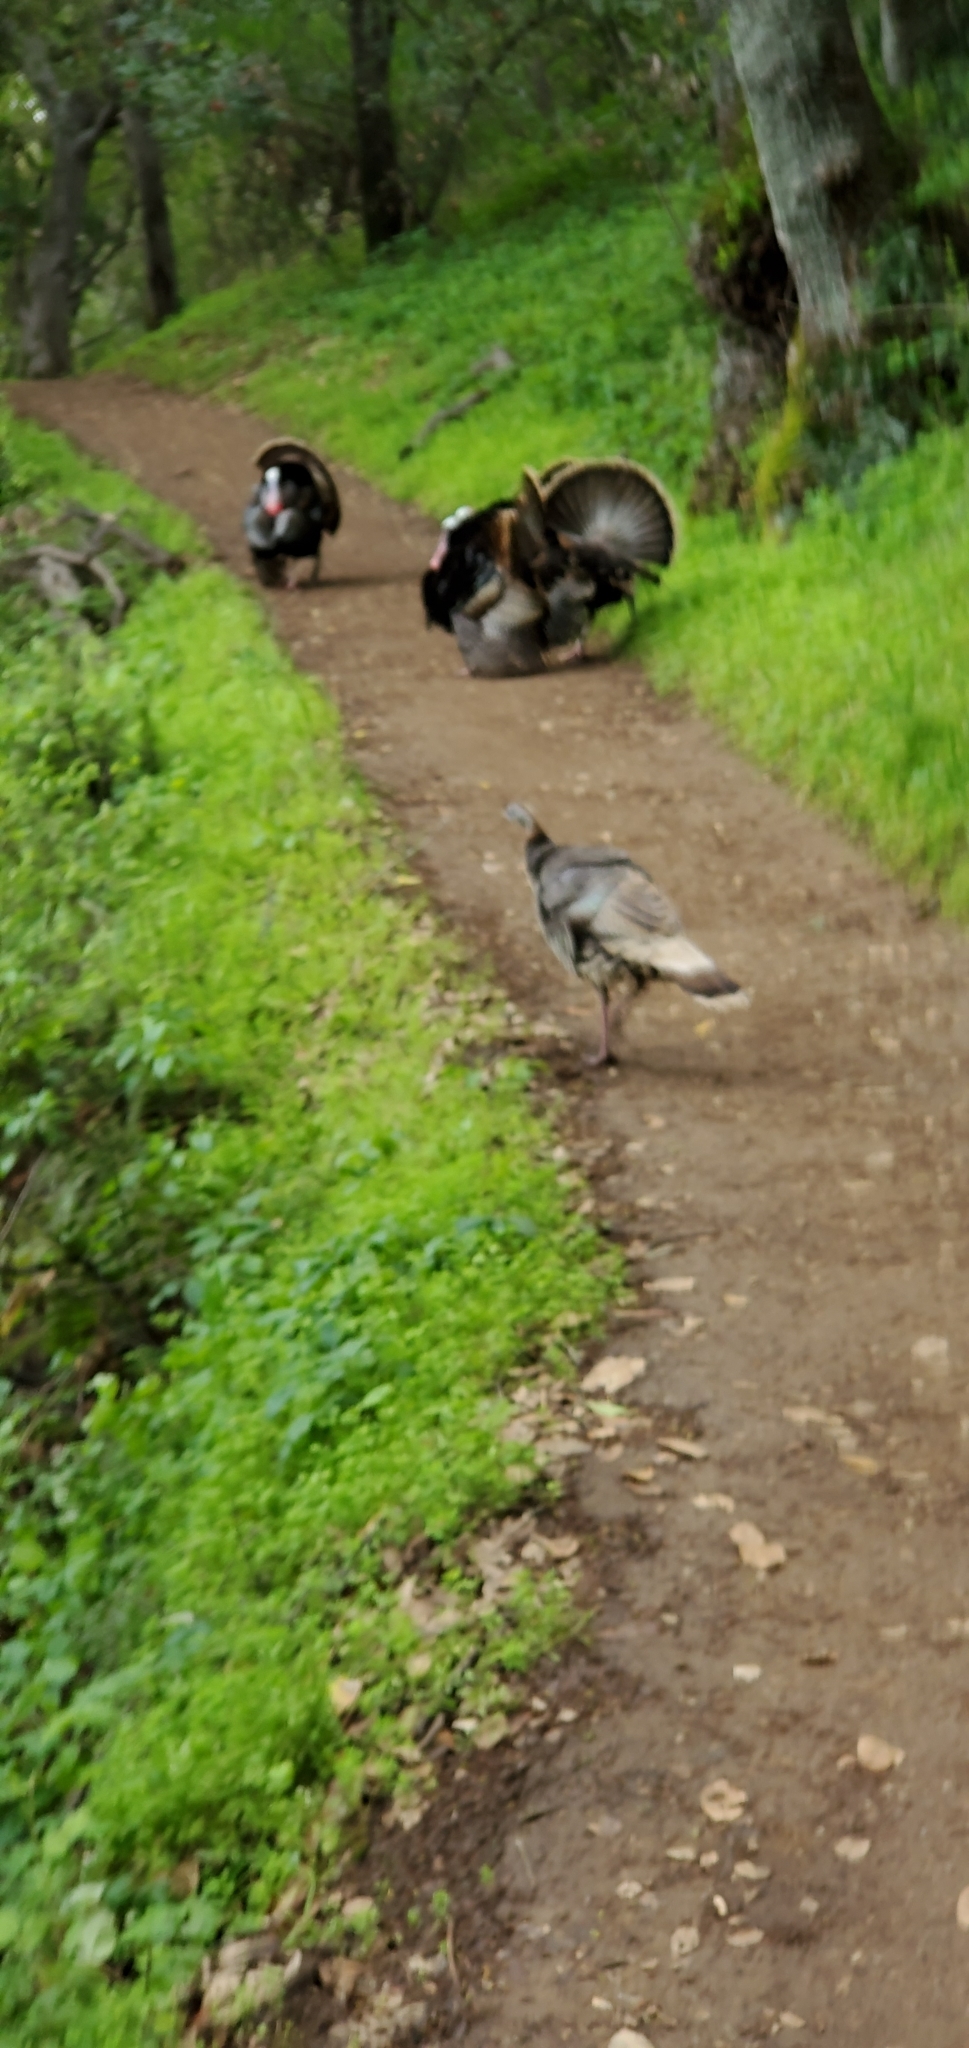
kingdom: Animalia
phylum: Chordata
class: Aves
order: Galliformes
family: Phasianidae
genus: Meleagris
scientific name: Meleagris gallopavo
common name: Wild turkey
